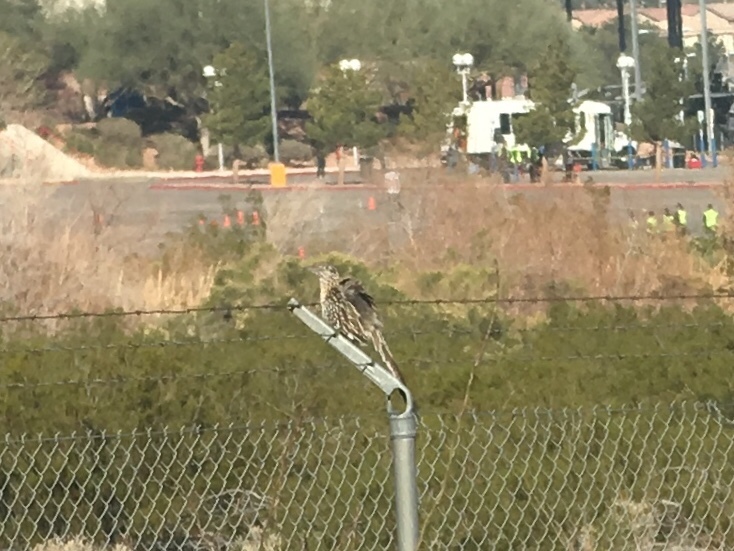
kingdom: Animalia
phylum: Chordata
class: Aves
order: Cuculiformes
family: Cuculidae
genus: Geococcyx
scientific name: Geococcyx californianus
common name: Greater roadrunner
